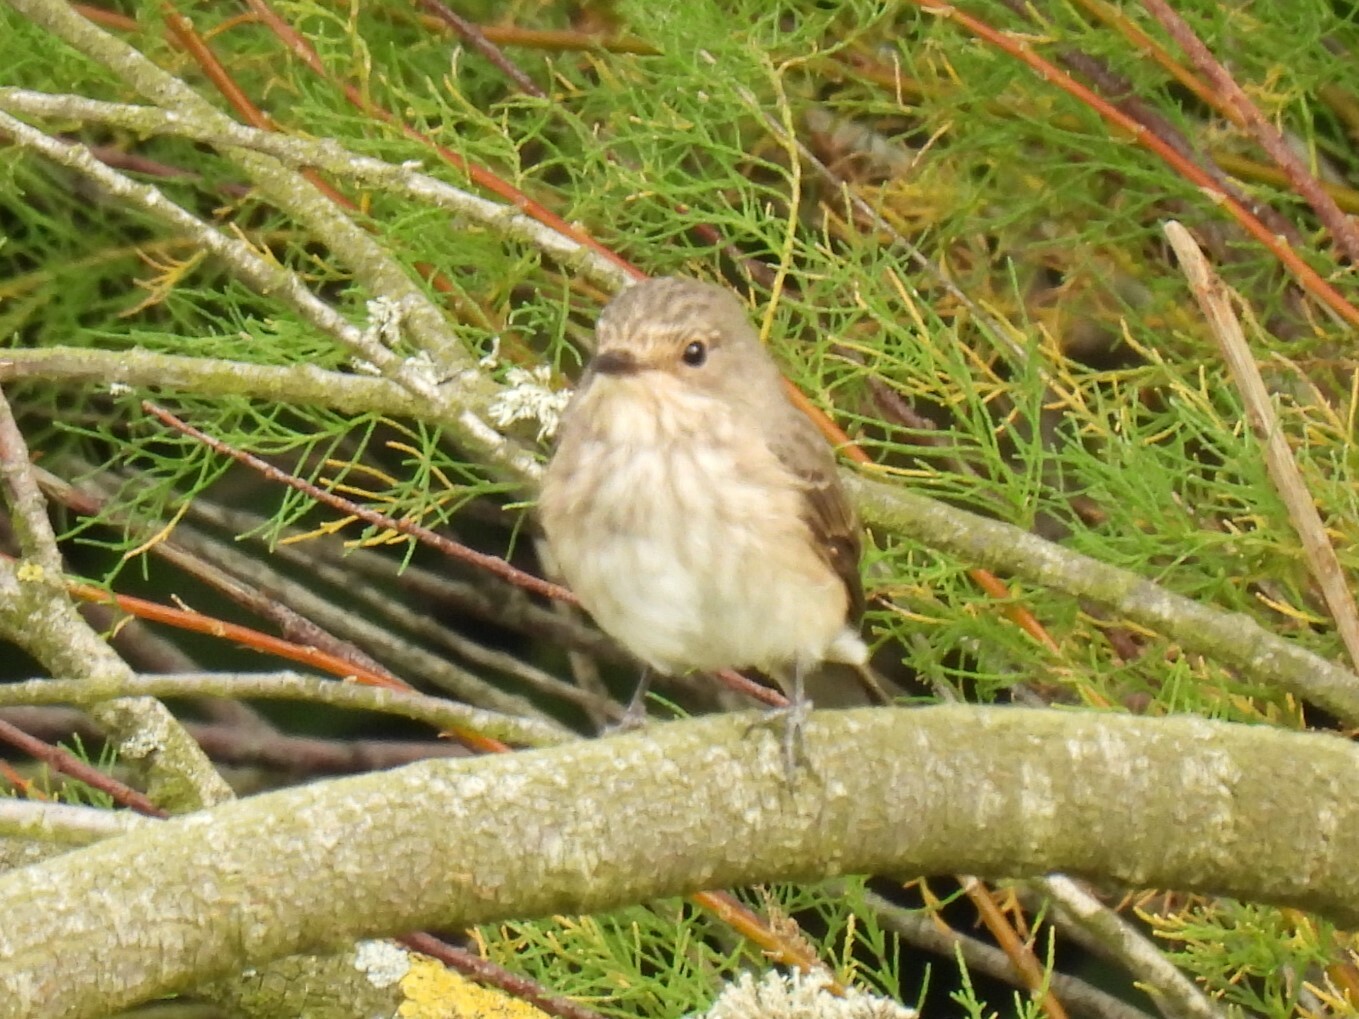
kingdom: Animalia
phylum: Chordata
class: Aves
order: Passeriformes
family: Muscicapidae
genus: Muscicapa
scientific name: Muscicapa striata
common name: Spotted flycatcher
